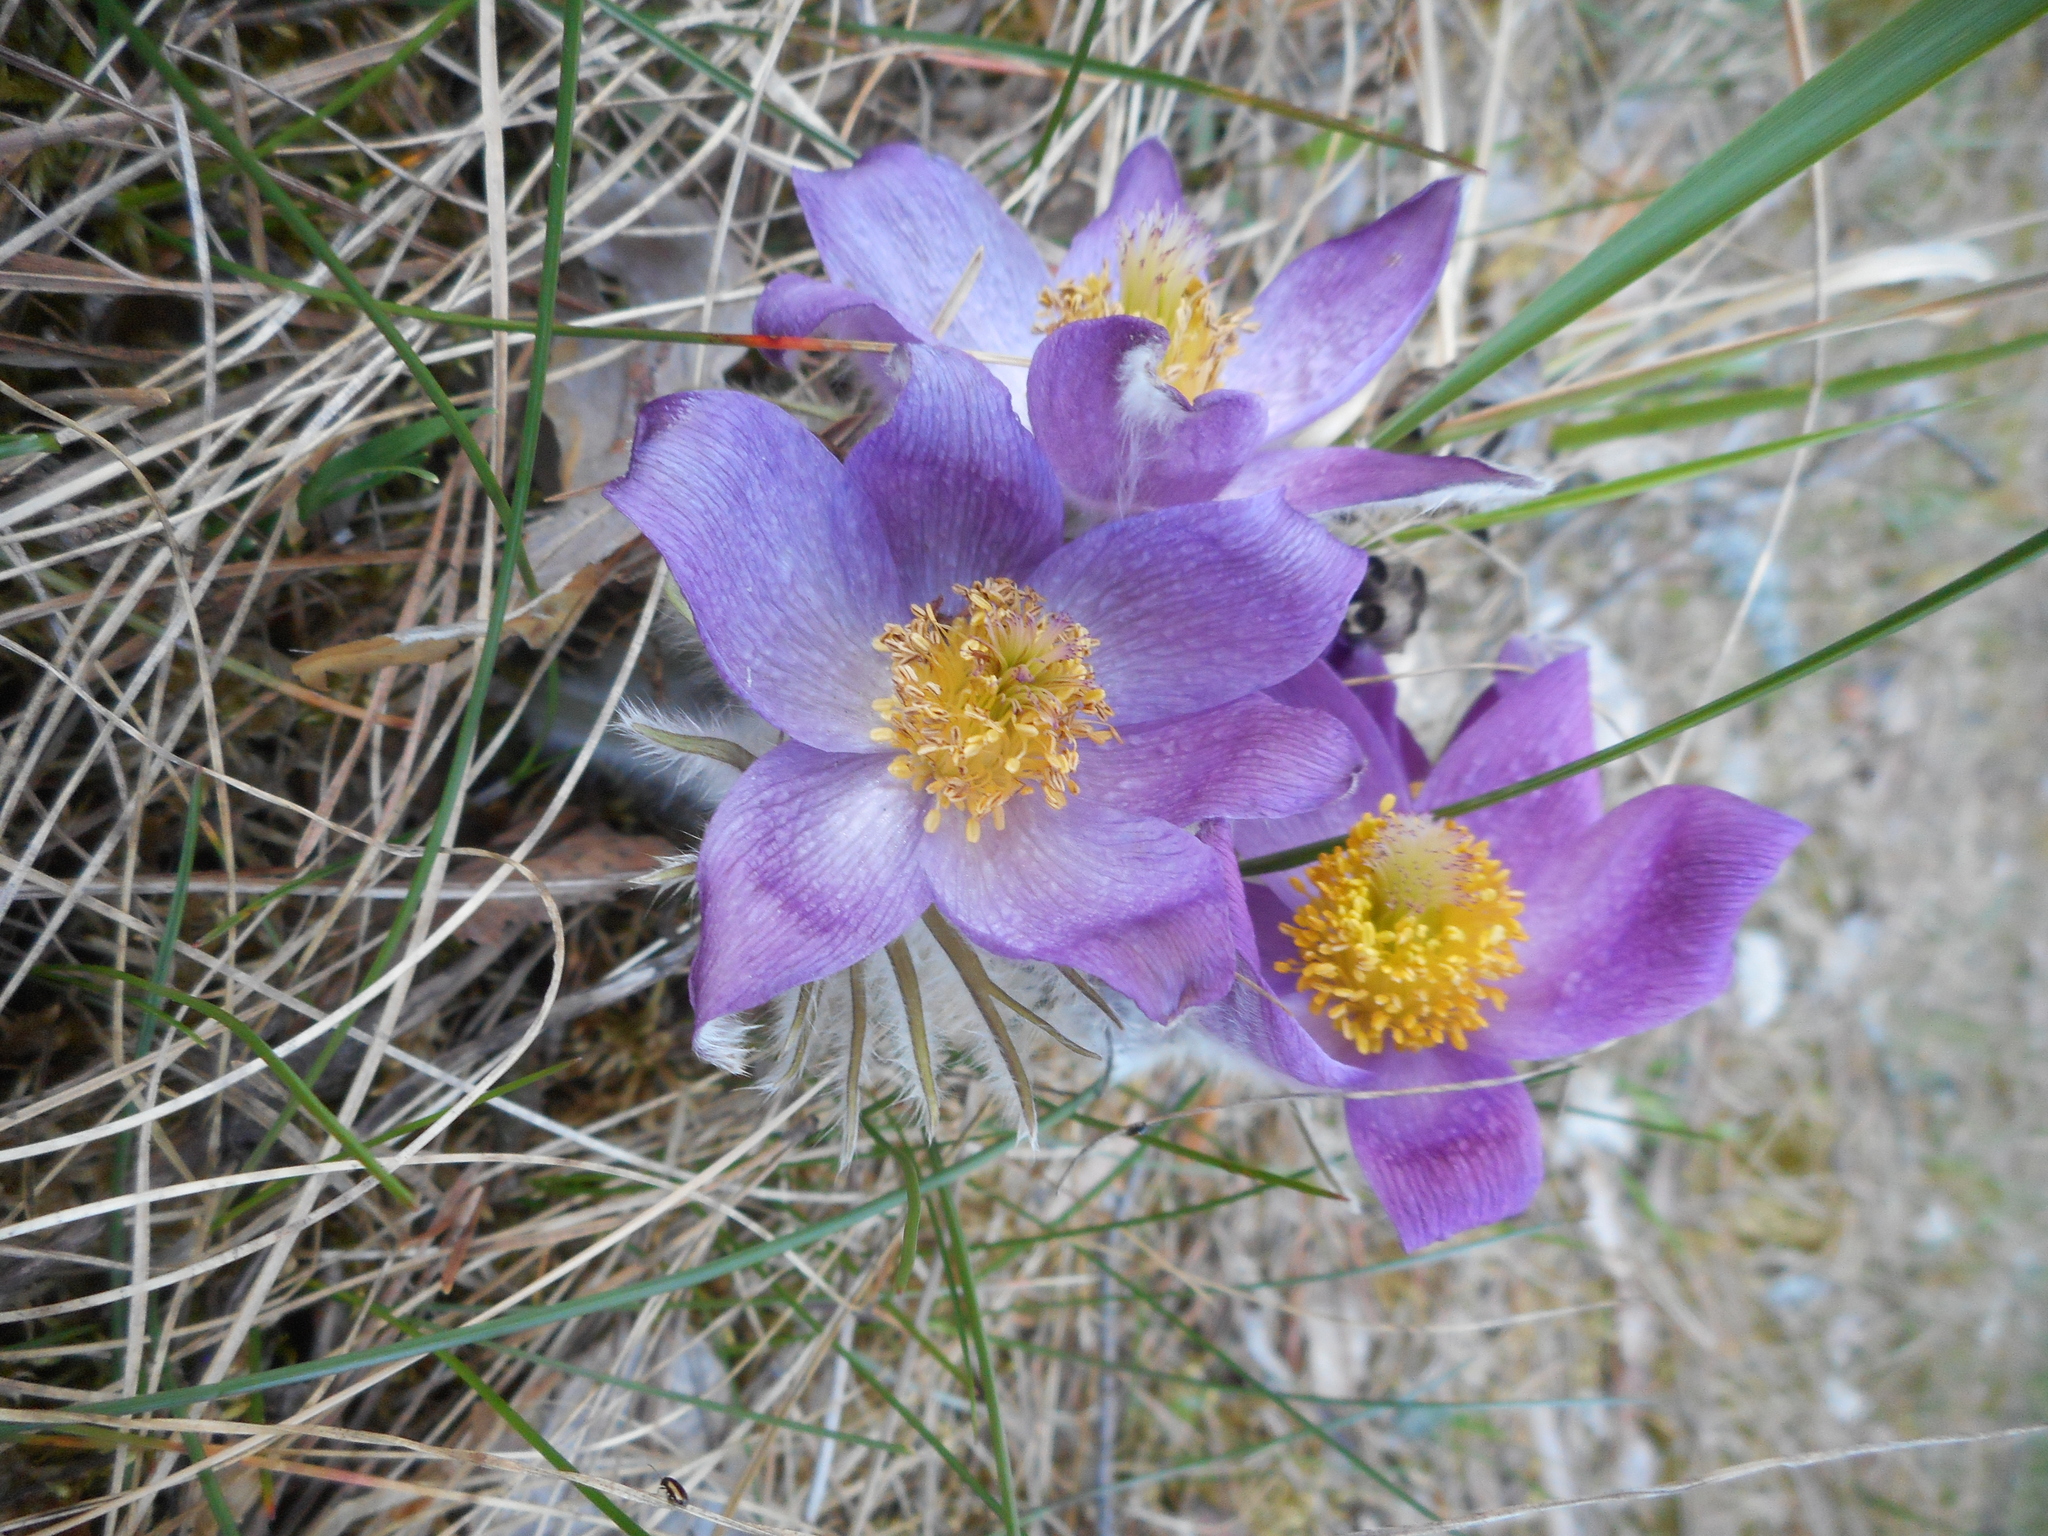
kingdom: Plantae
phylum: Tracheophyta
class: Magnoliopsida
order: Ranunculales
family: Ranunculaceae
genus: Pulsatilla
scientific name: Pulsatilla patens
